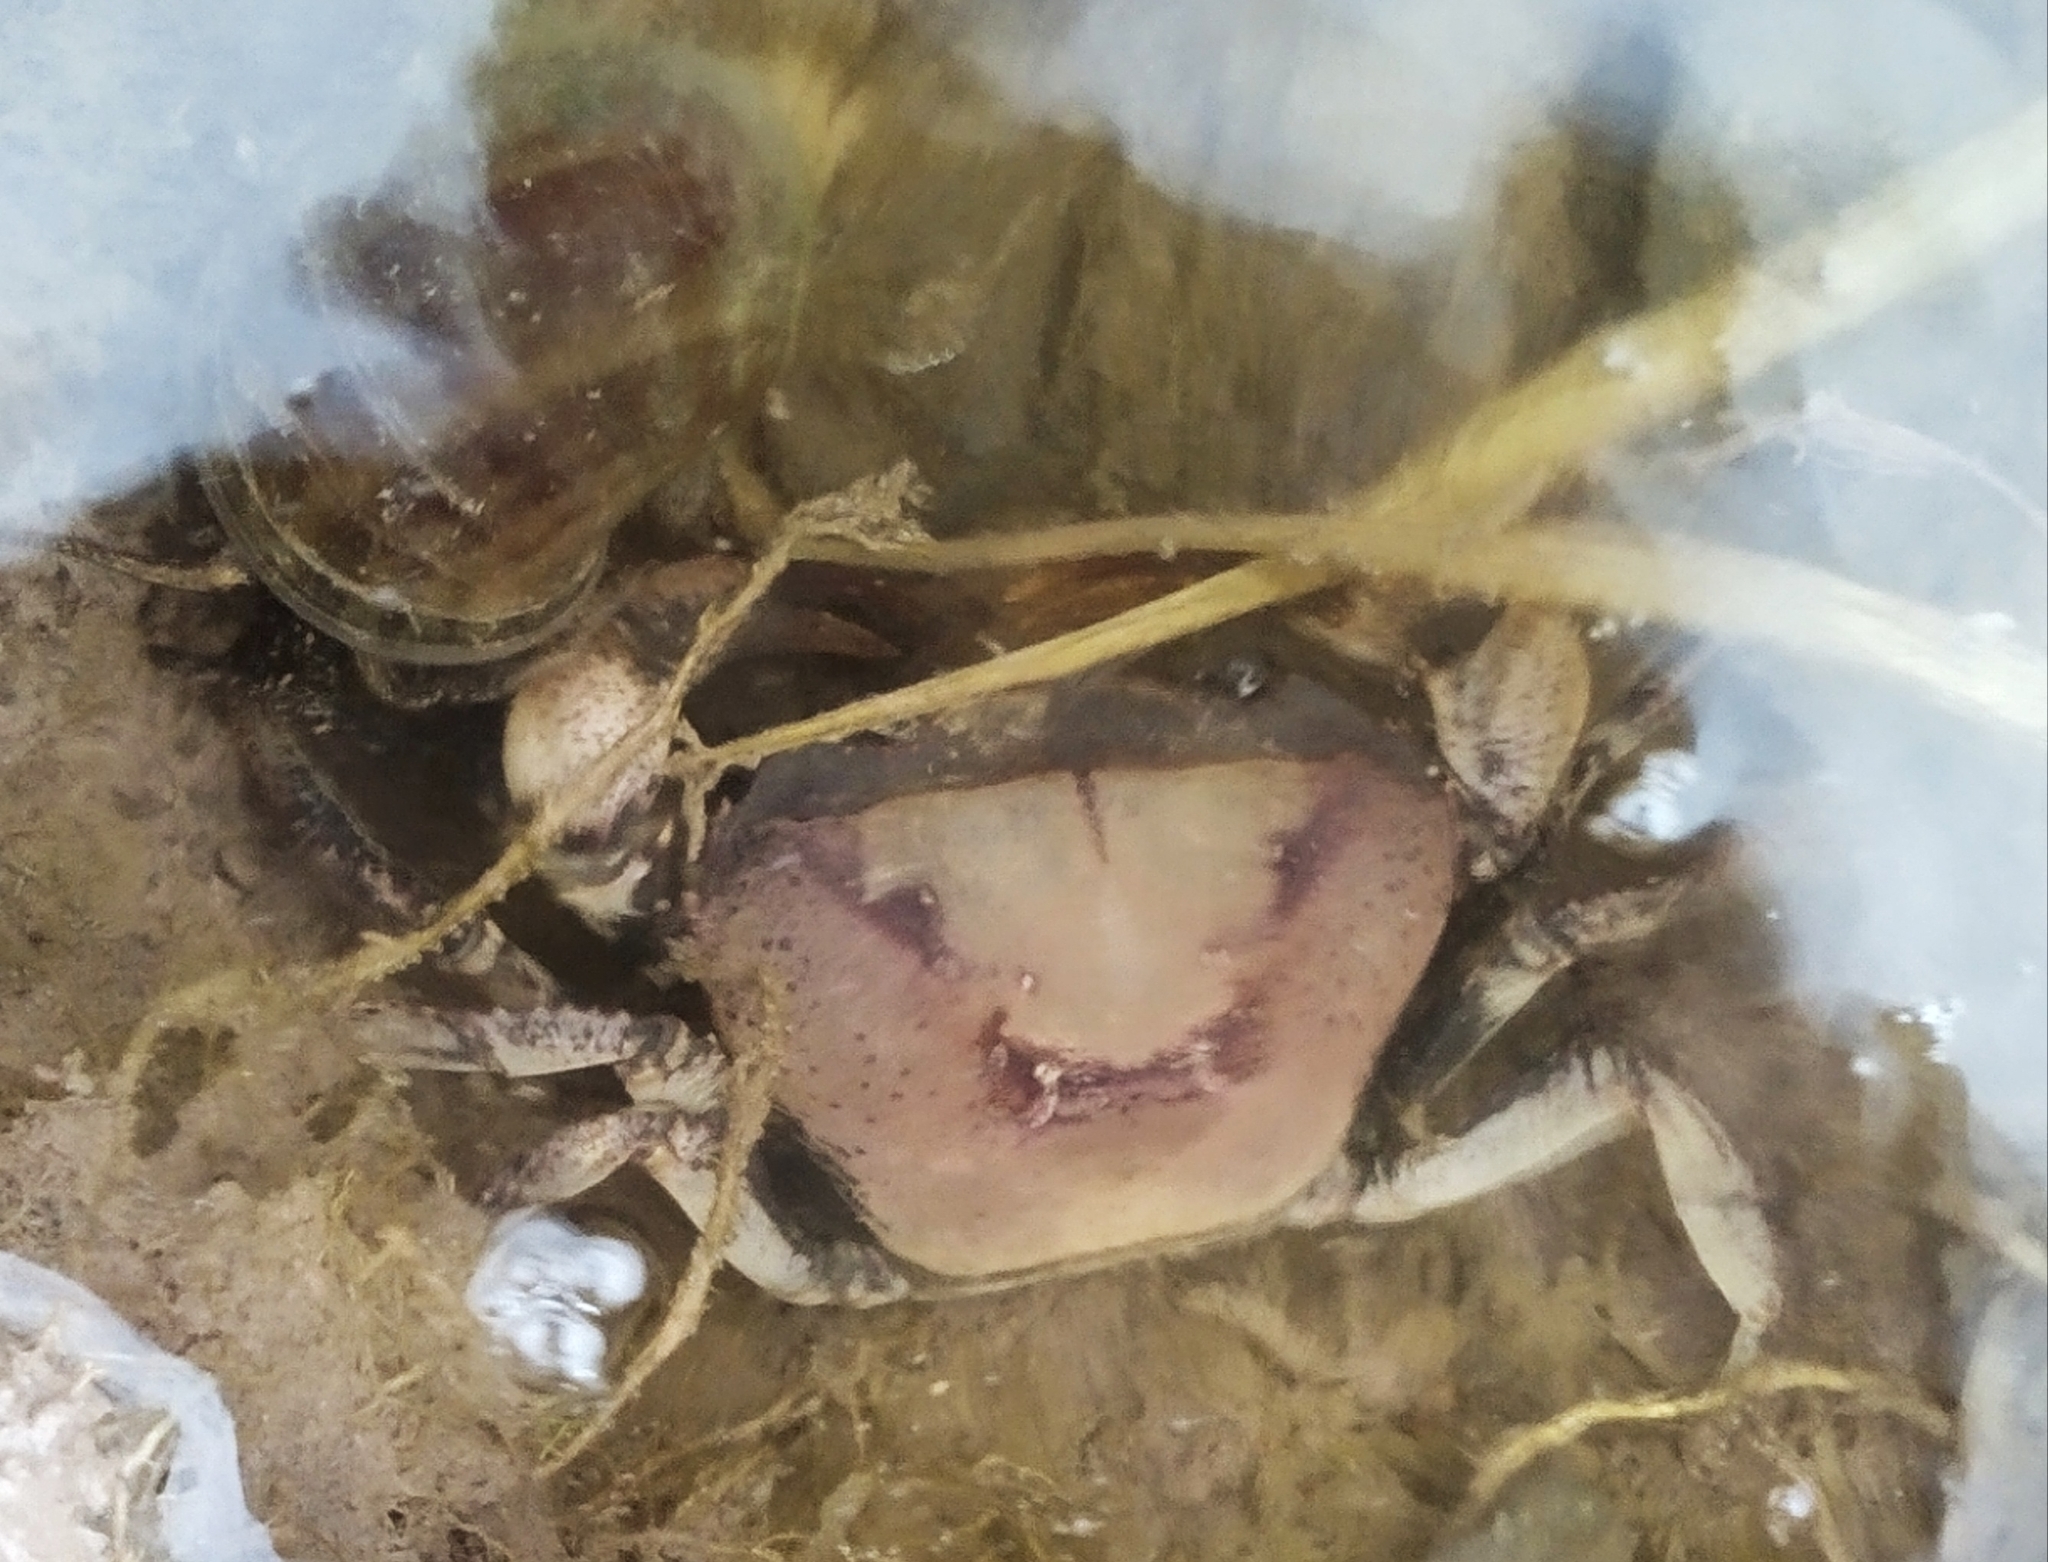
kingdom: Animalia
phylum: Arthropoda
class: Malacostraca
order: Decapoda
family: Gecarcinucidae
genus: Parathelphusa
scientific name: Parathelphusa convexa
